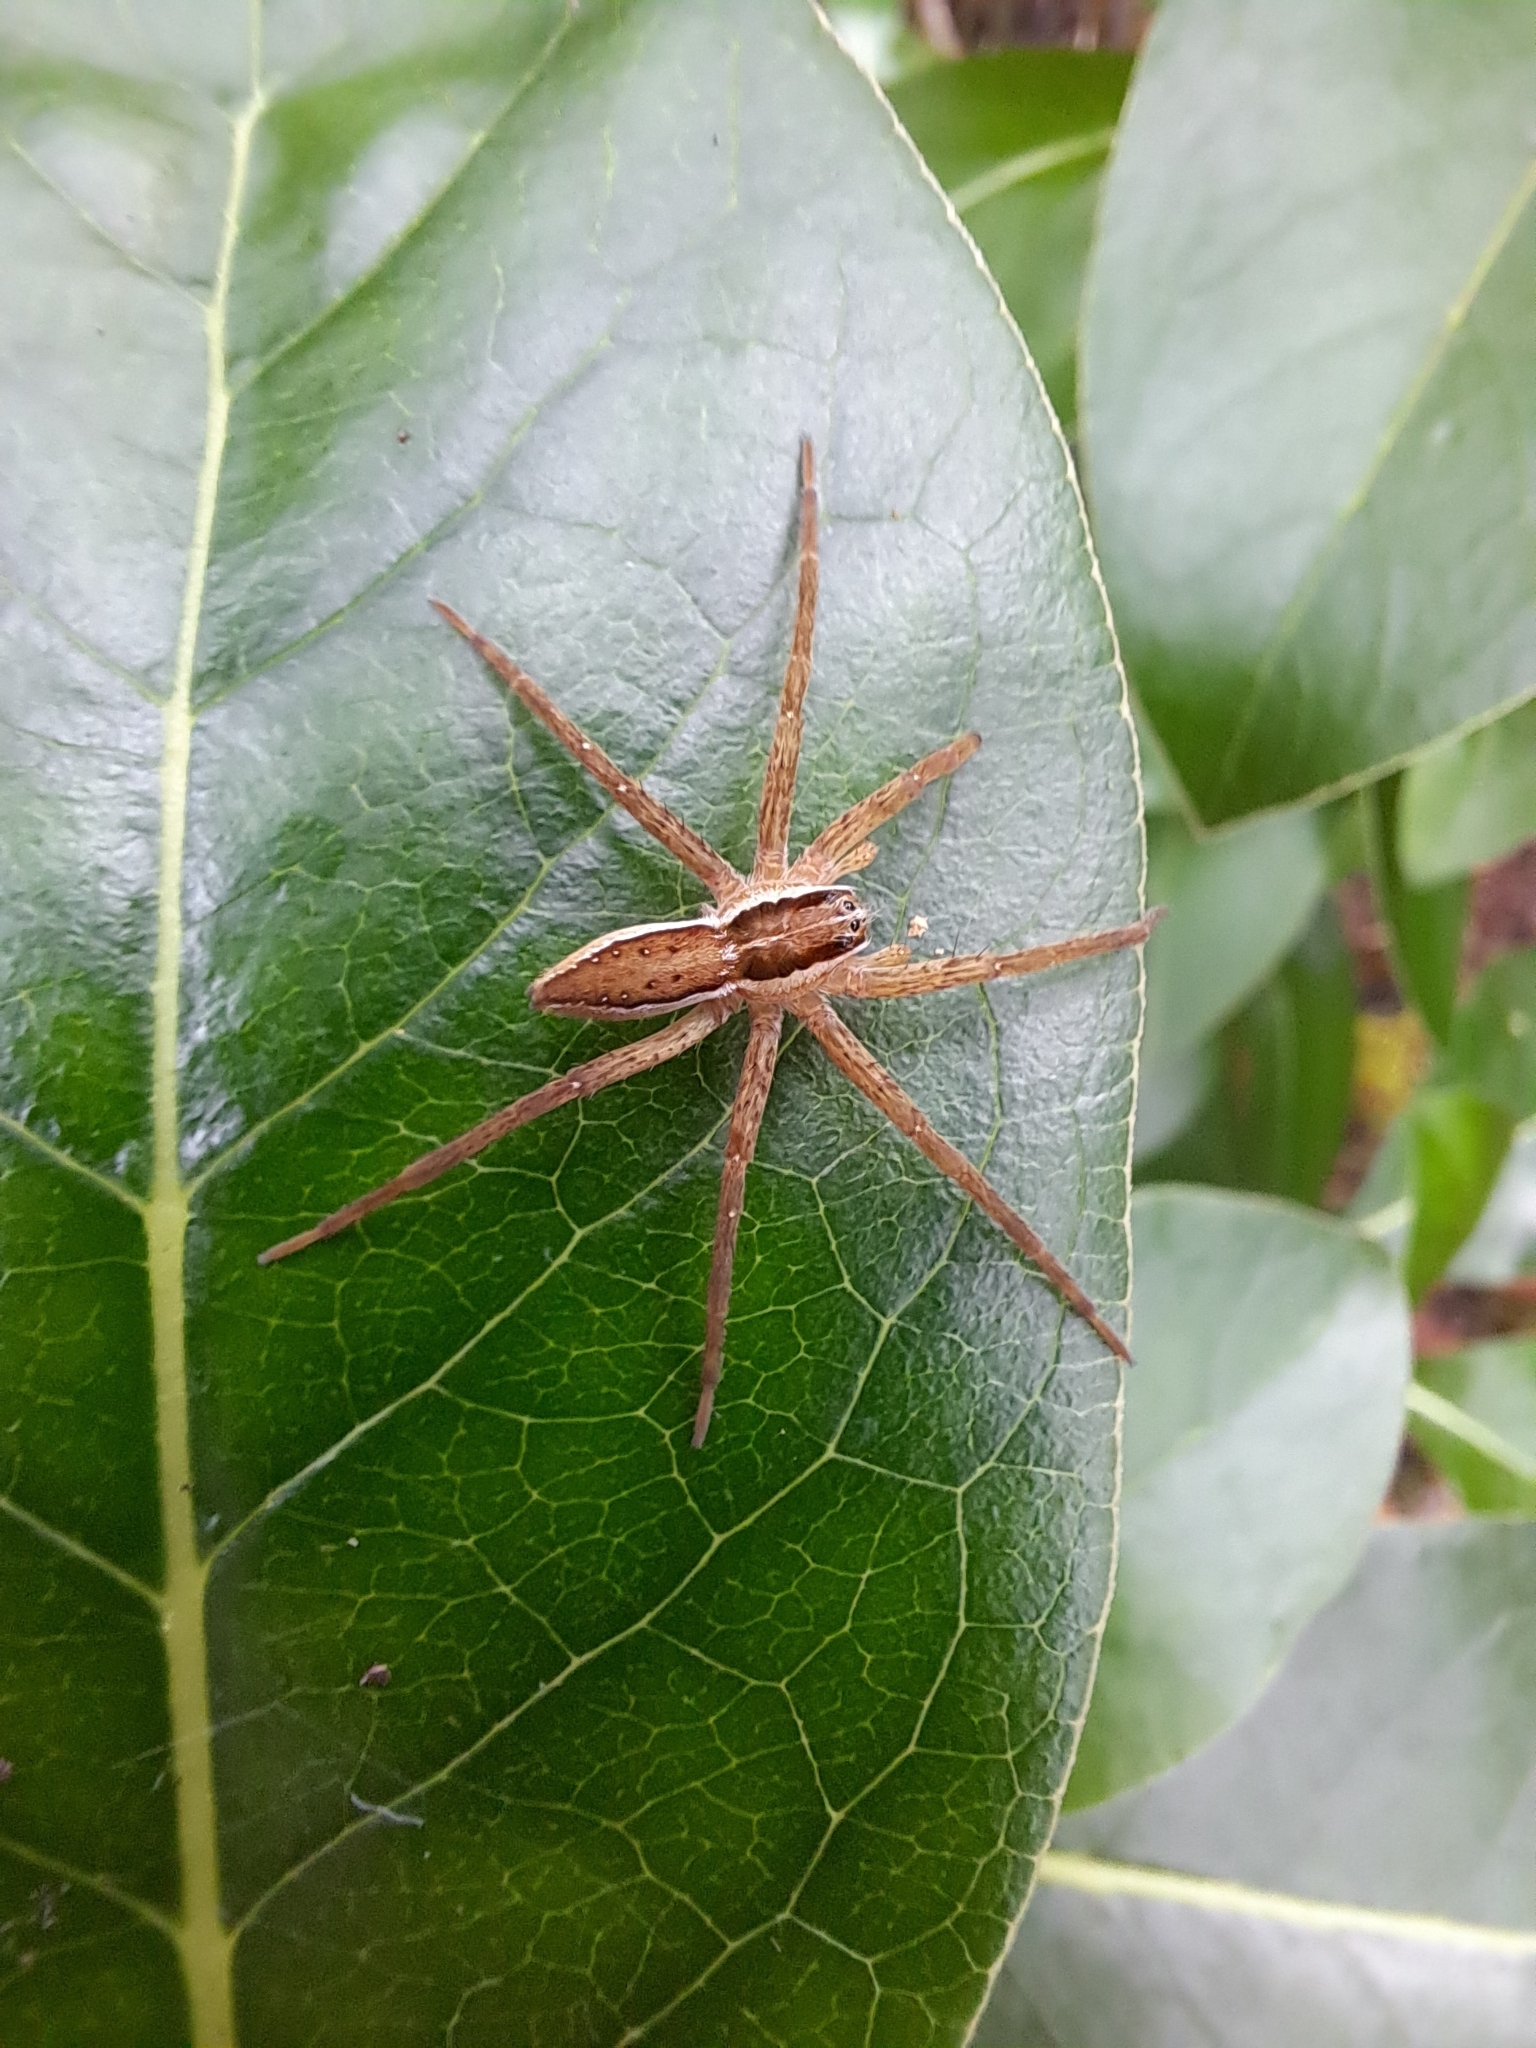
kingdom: Animalia
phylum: Arthropoda
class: Arachnida
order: Araneae
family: Pisauridae
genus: Dolomedes
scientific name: Dolomedes minor
